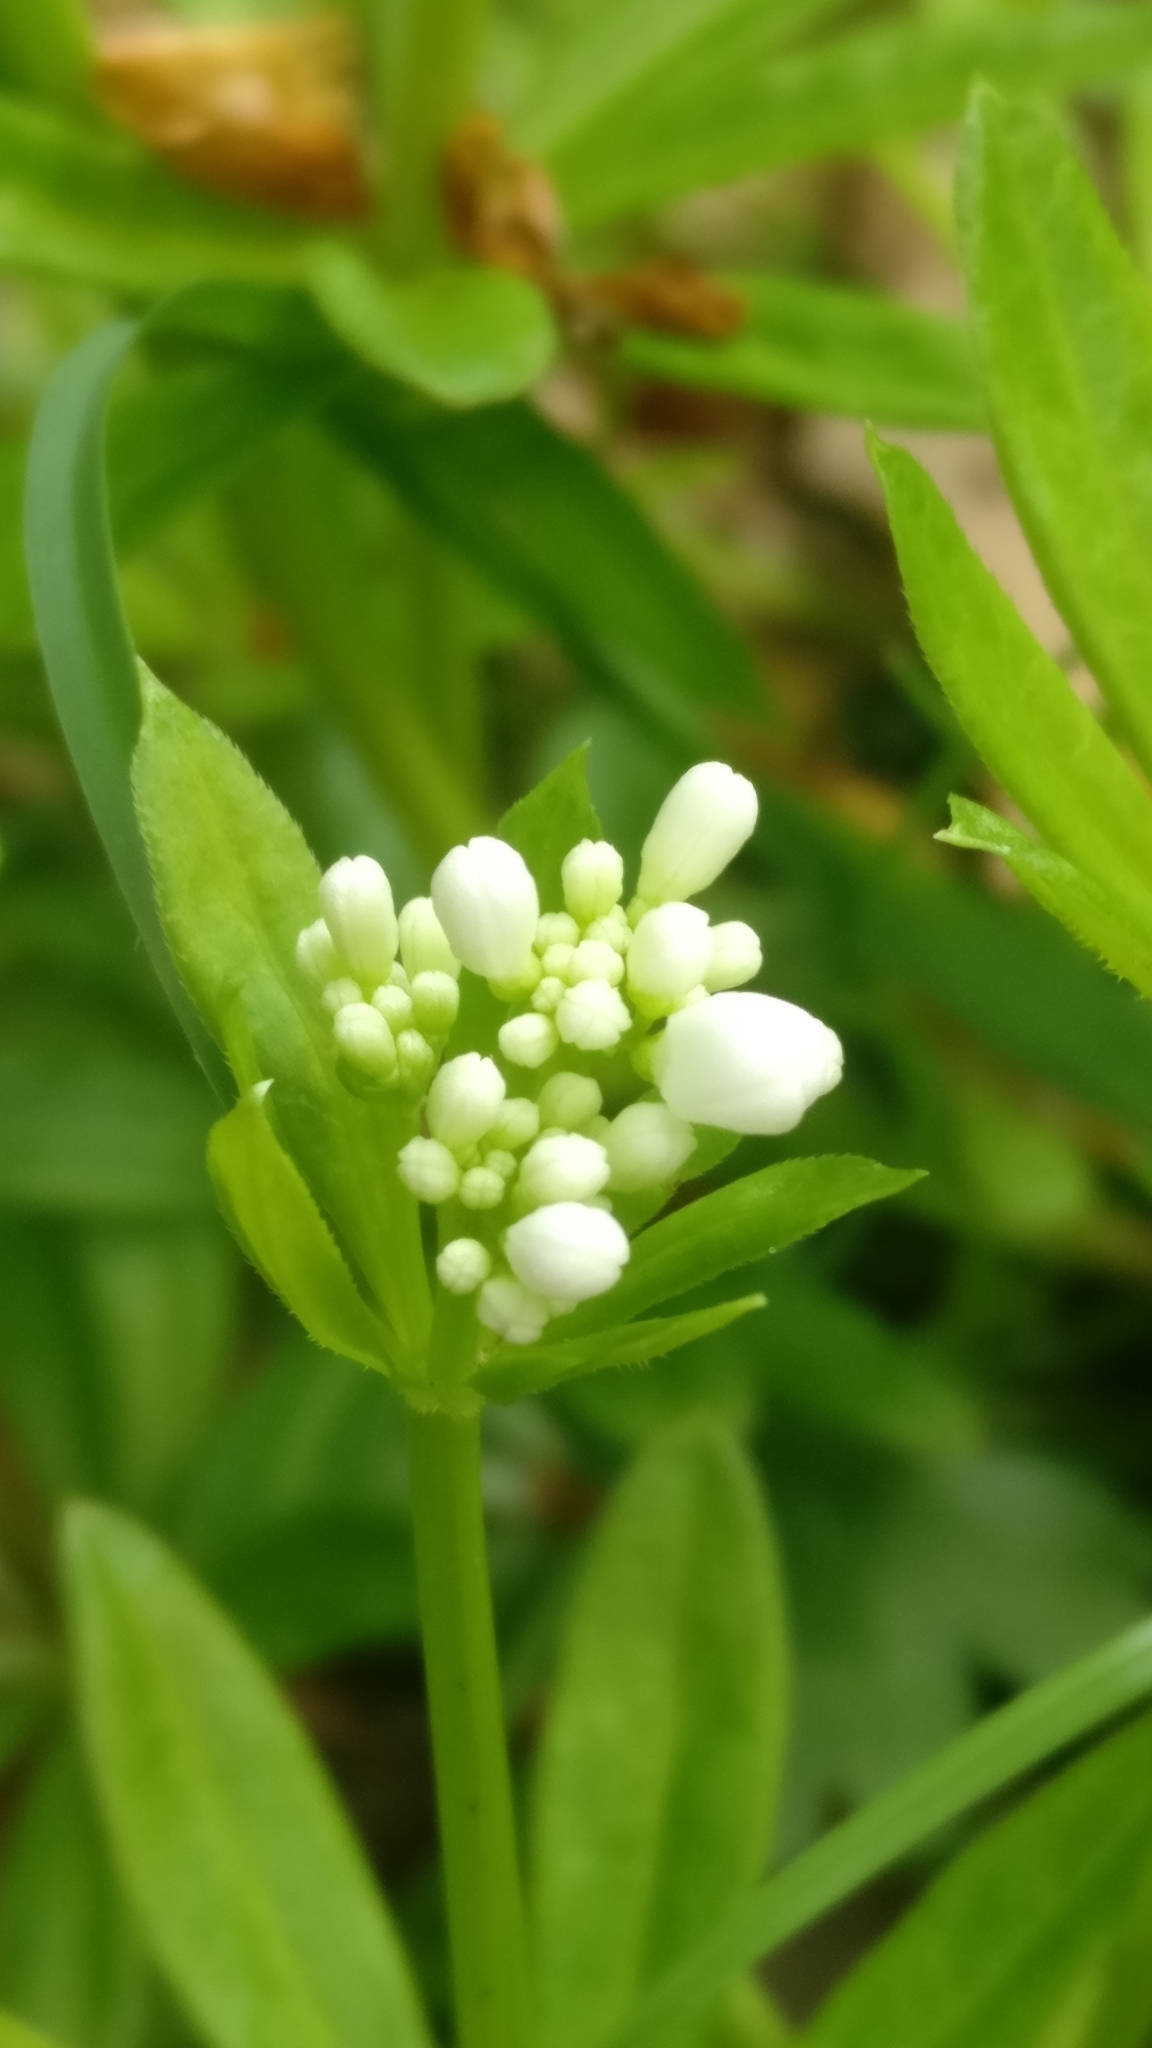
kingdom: Plantae
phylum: Tracheophyta
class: Magnoliopsida
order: Gentianales
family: Rubiaceae
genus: Galium
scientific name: Galium odoratum
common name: Sweet woodruff
